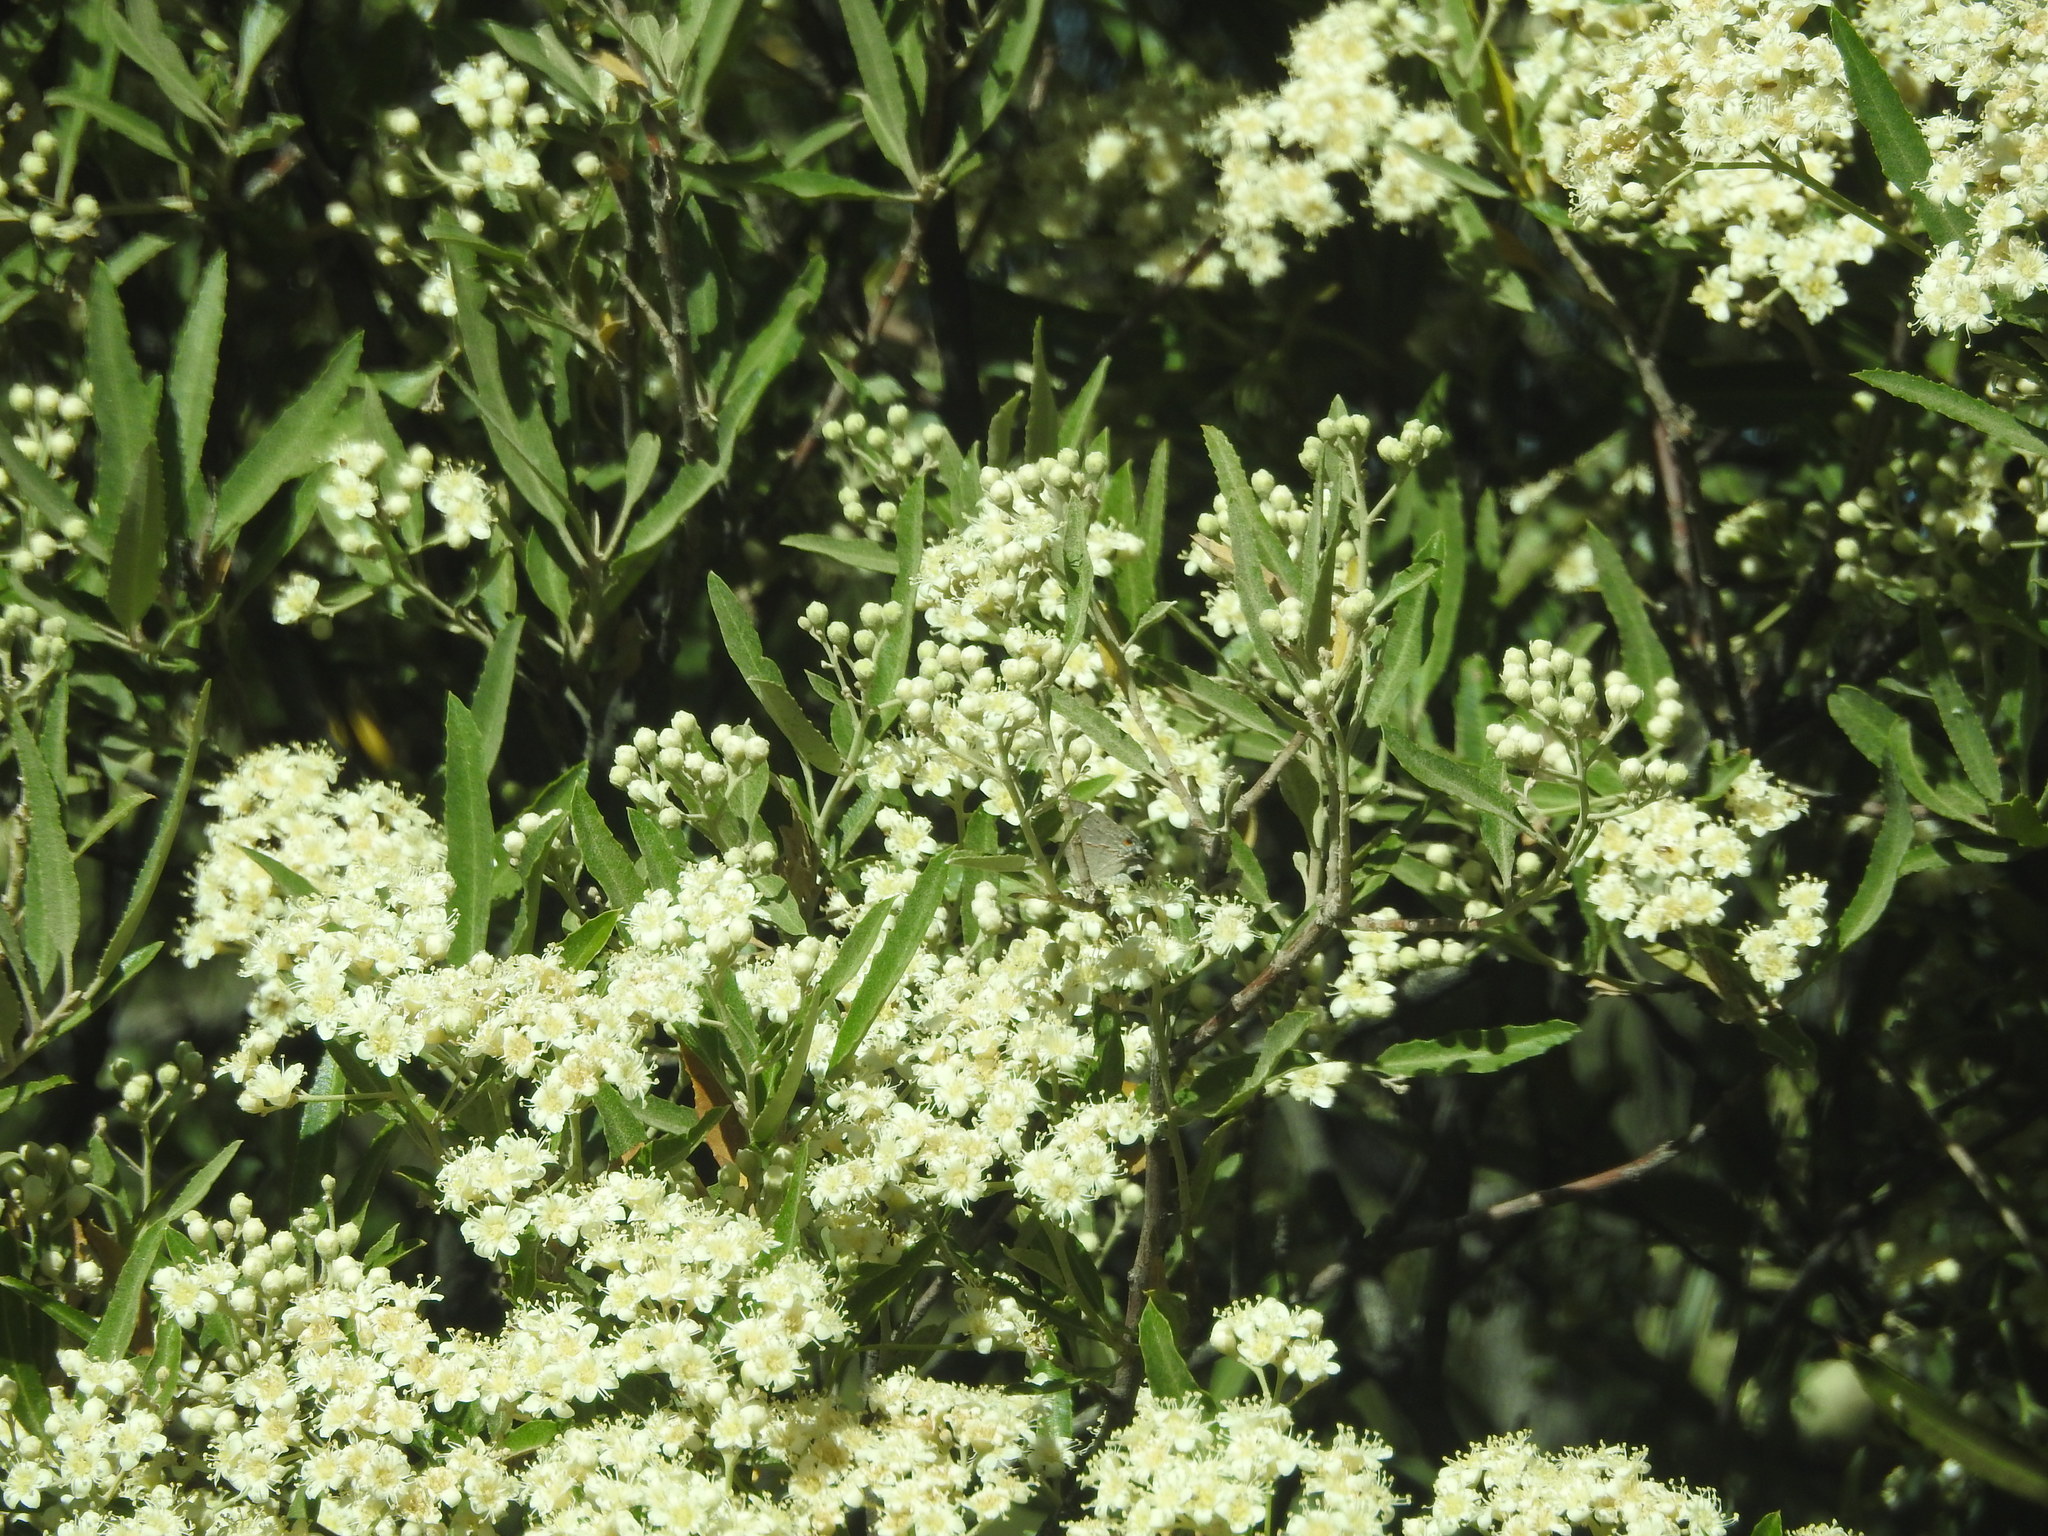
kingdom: Plantae
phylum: Tracheophyta
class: Magnoliopsida
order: Rosales
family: Rosaceae
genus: Vauquelinia
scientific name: Vauquelinia californica
